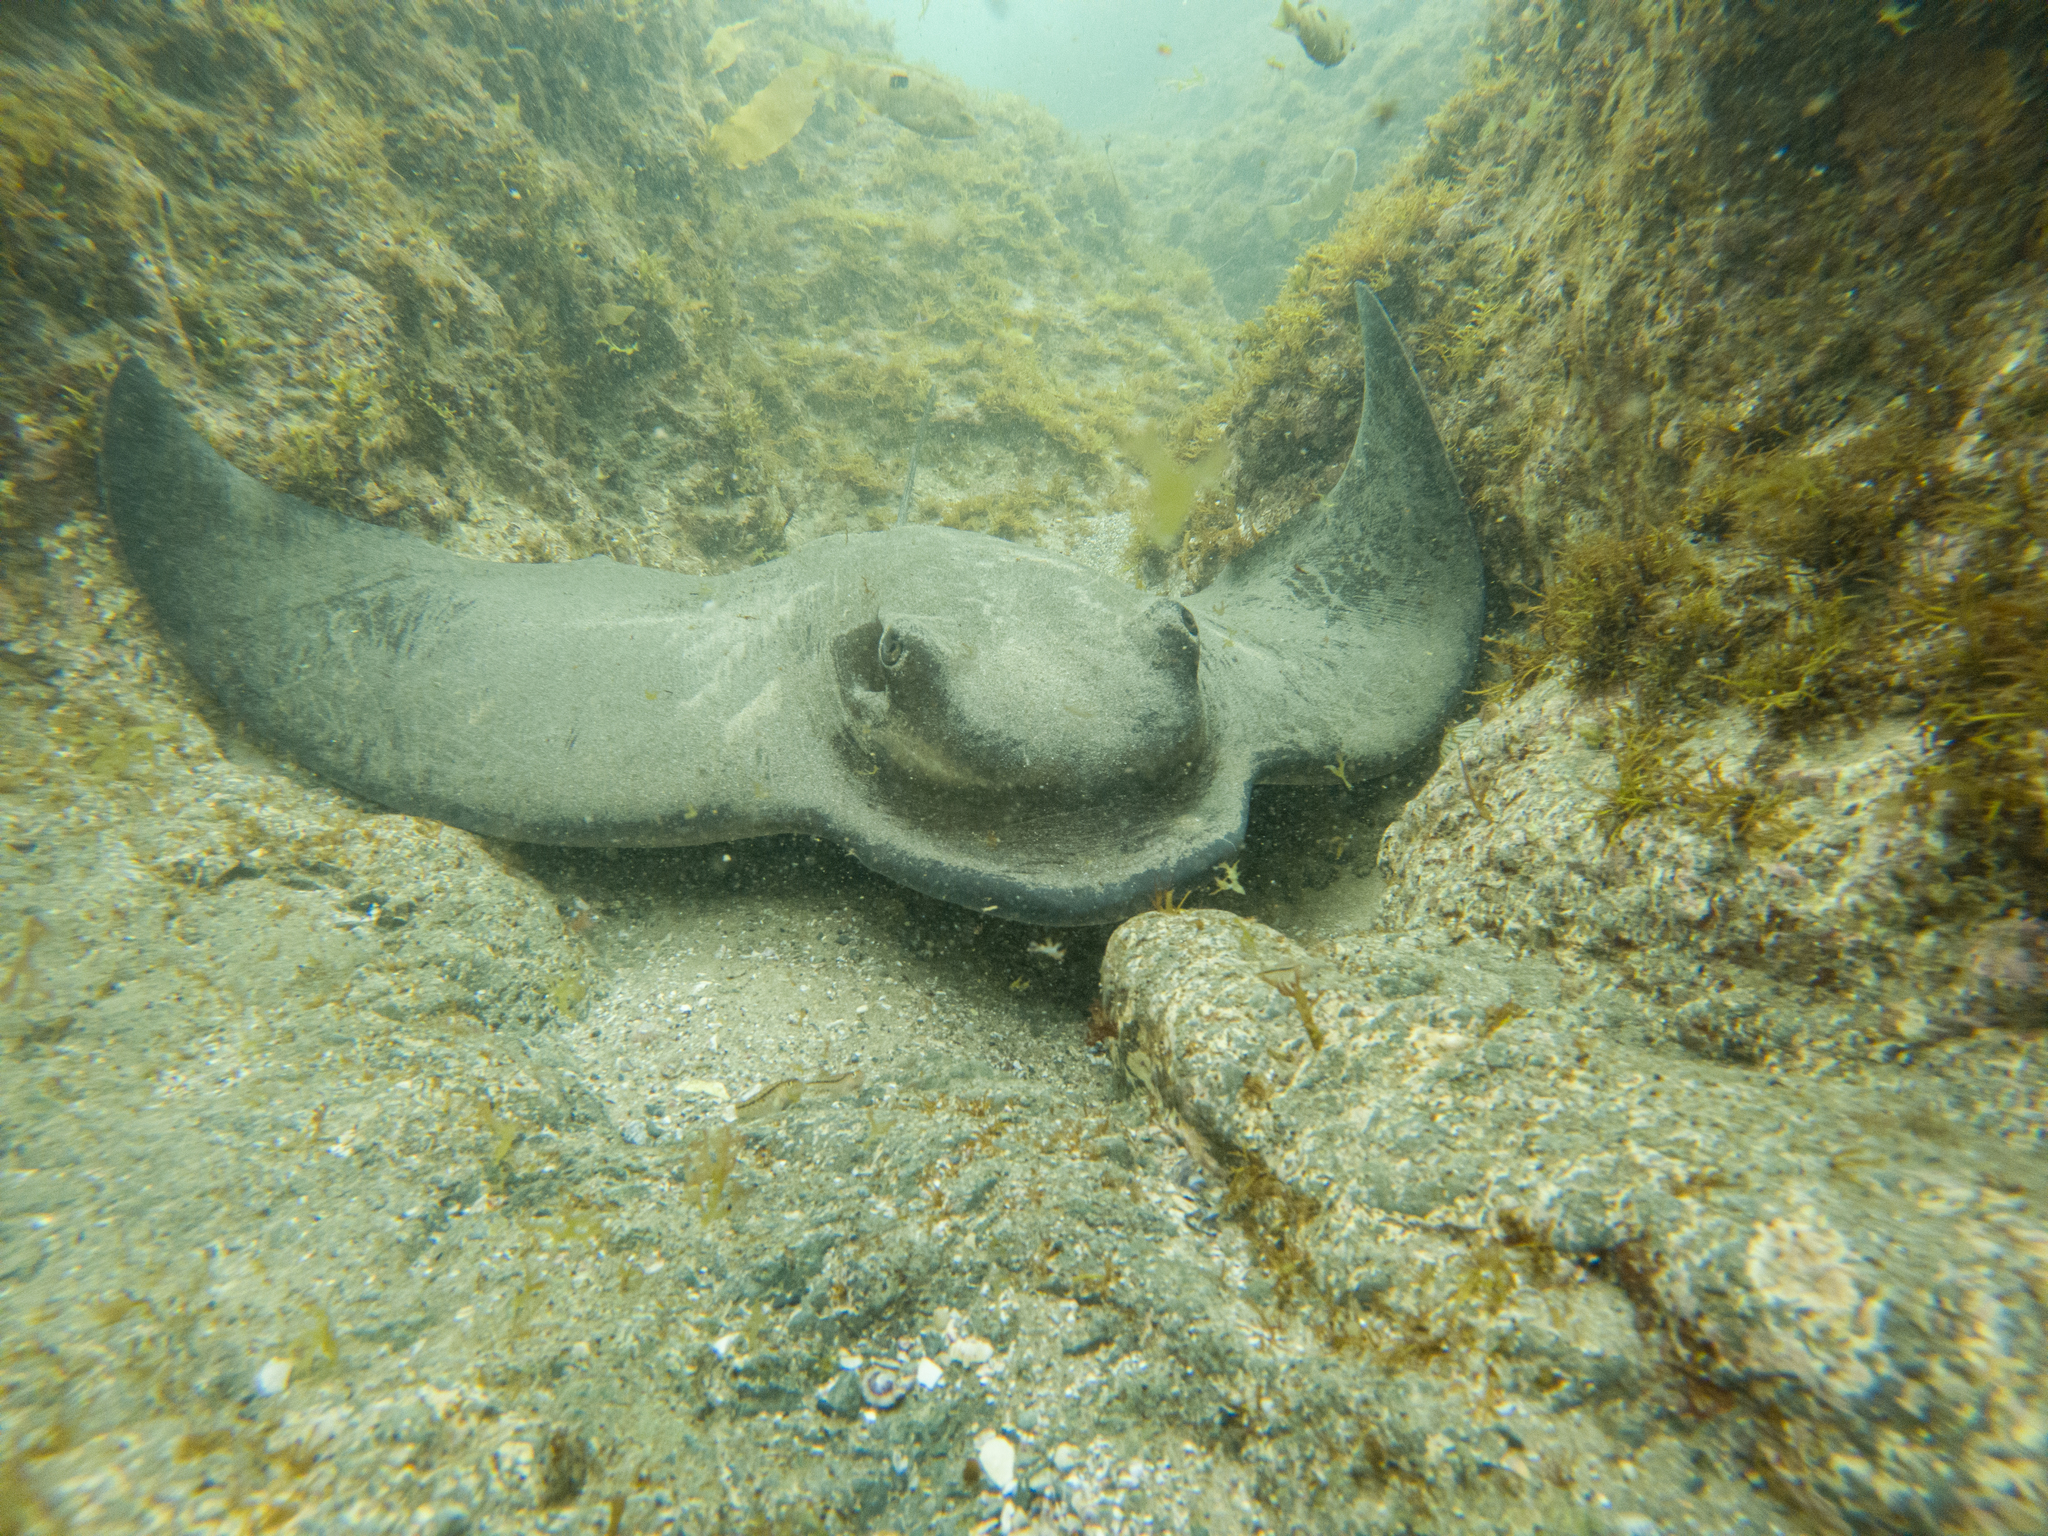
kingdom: Animalia
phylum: Chordata
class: Elasmobranchii
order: Myliobatiformes
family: Myliobatidae
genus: Myliobatis
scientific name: Myliobatis tenuicaudatus
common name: Eagle ray
